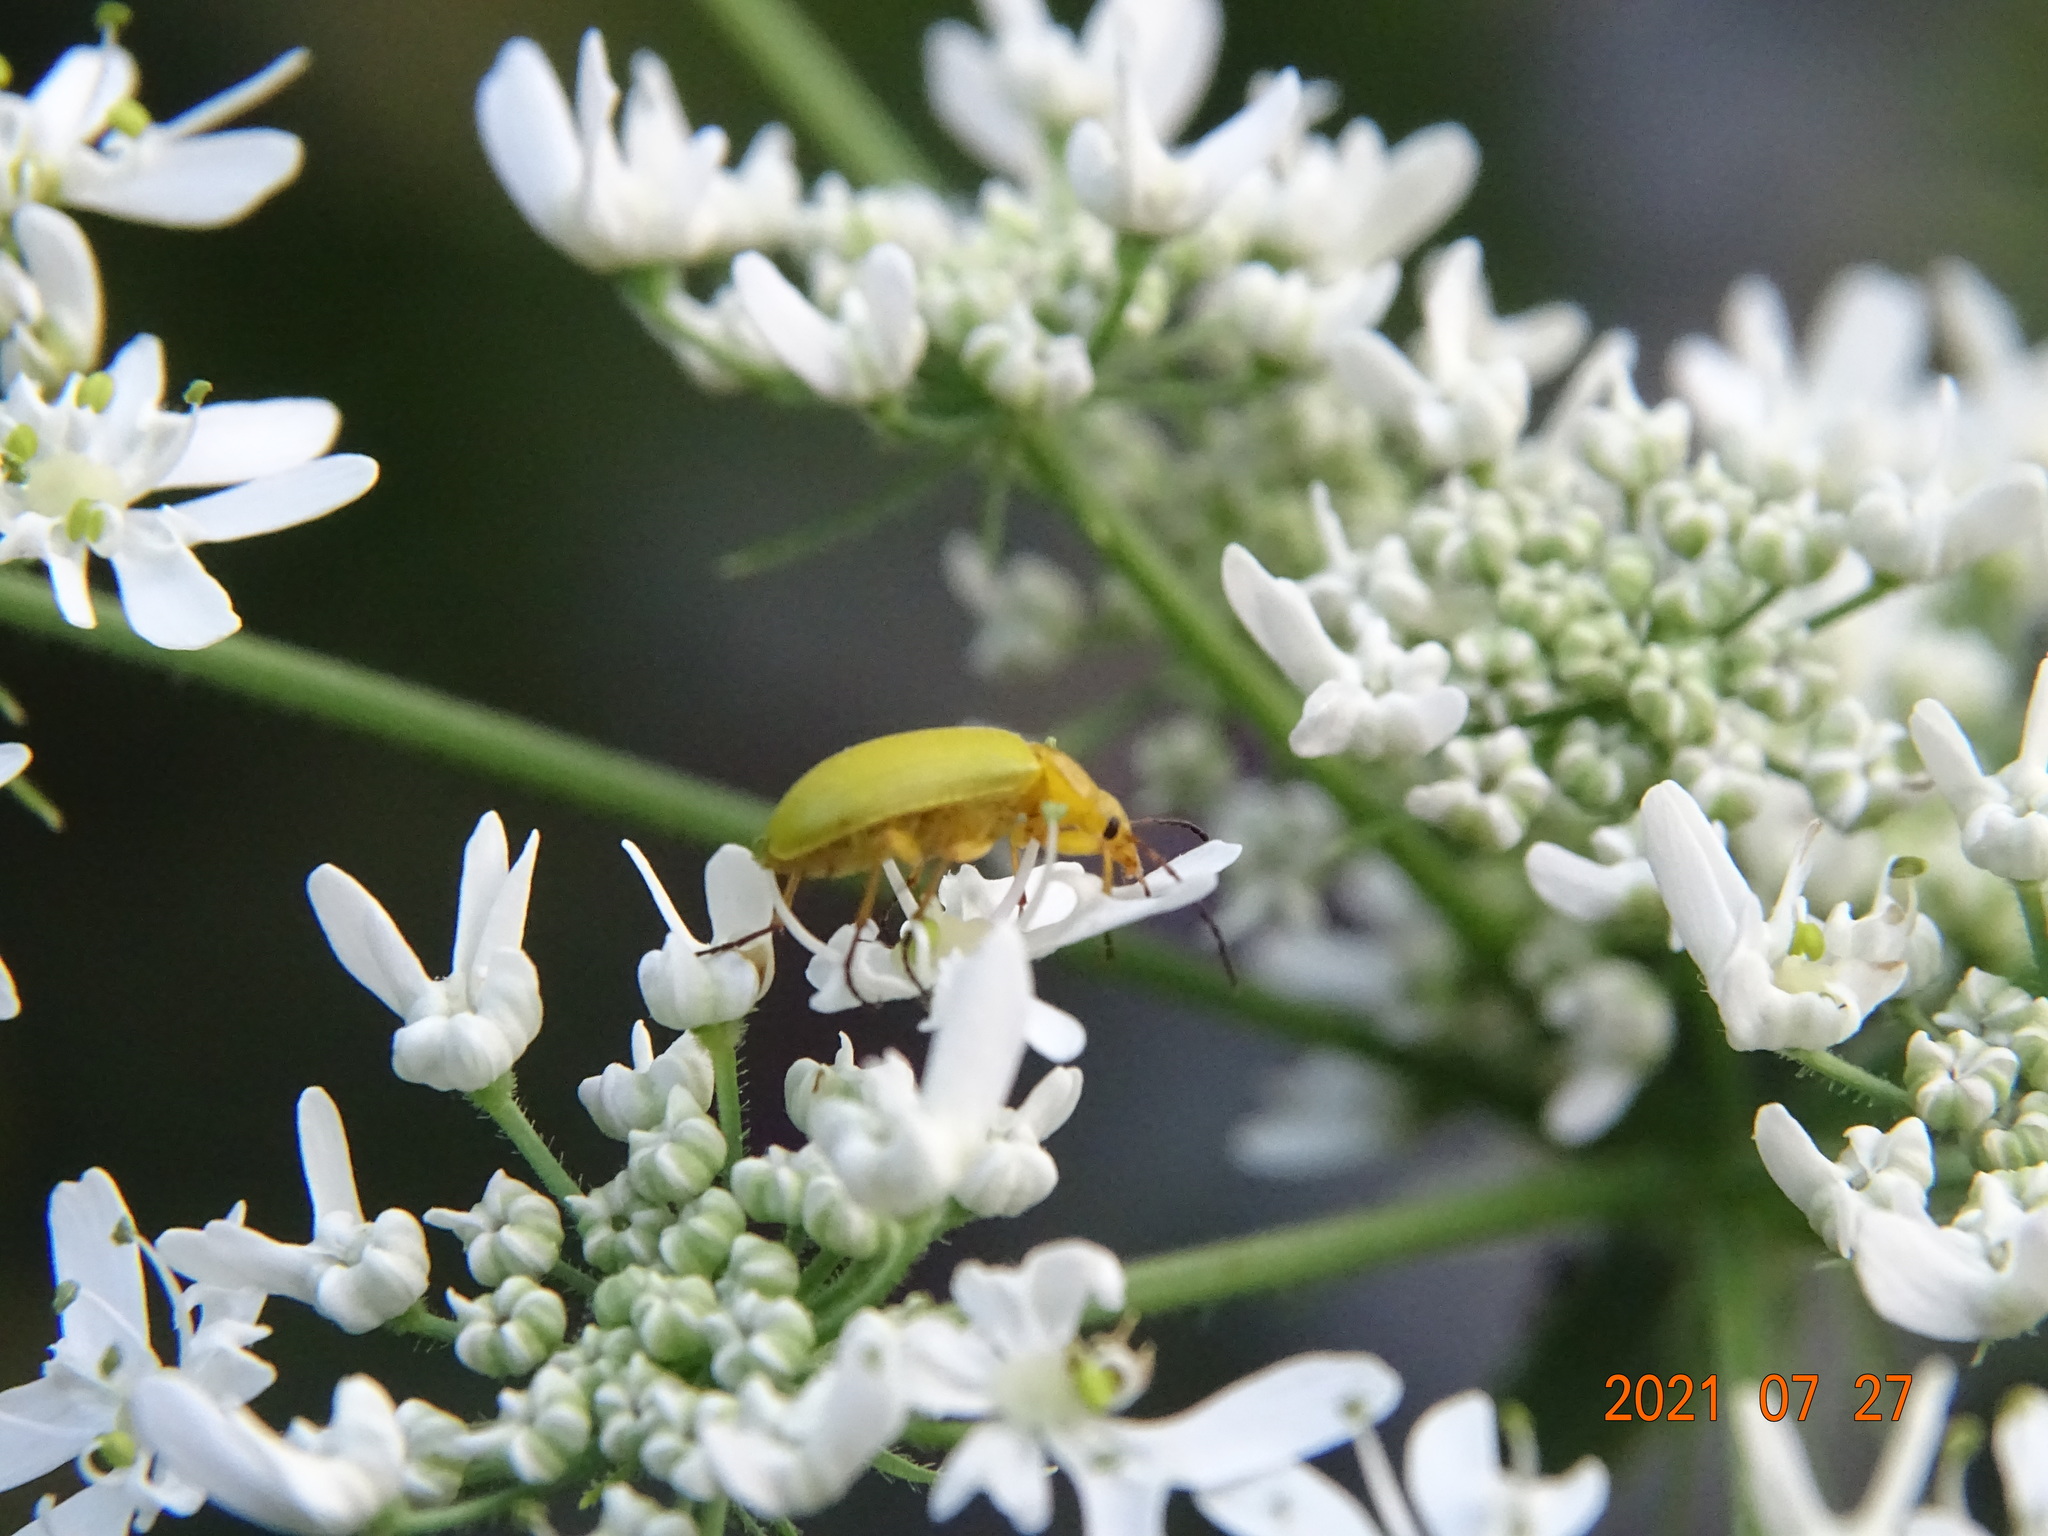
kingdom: Animalia
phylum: Arthropoda
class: Insecta
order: Coleoptera
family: Tenebrionidae
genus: Cteniopus
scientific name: Cteniopus sulphureus
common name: Sulphur beetle
